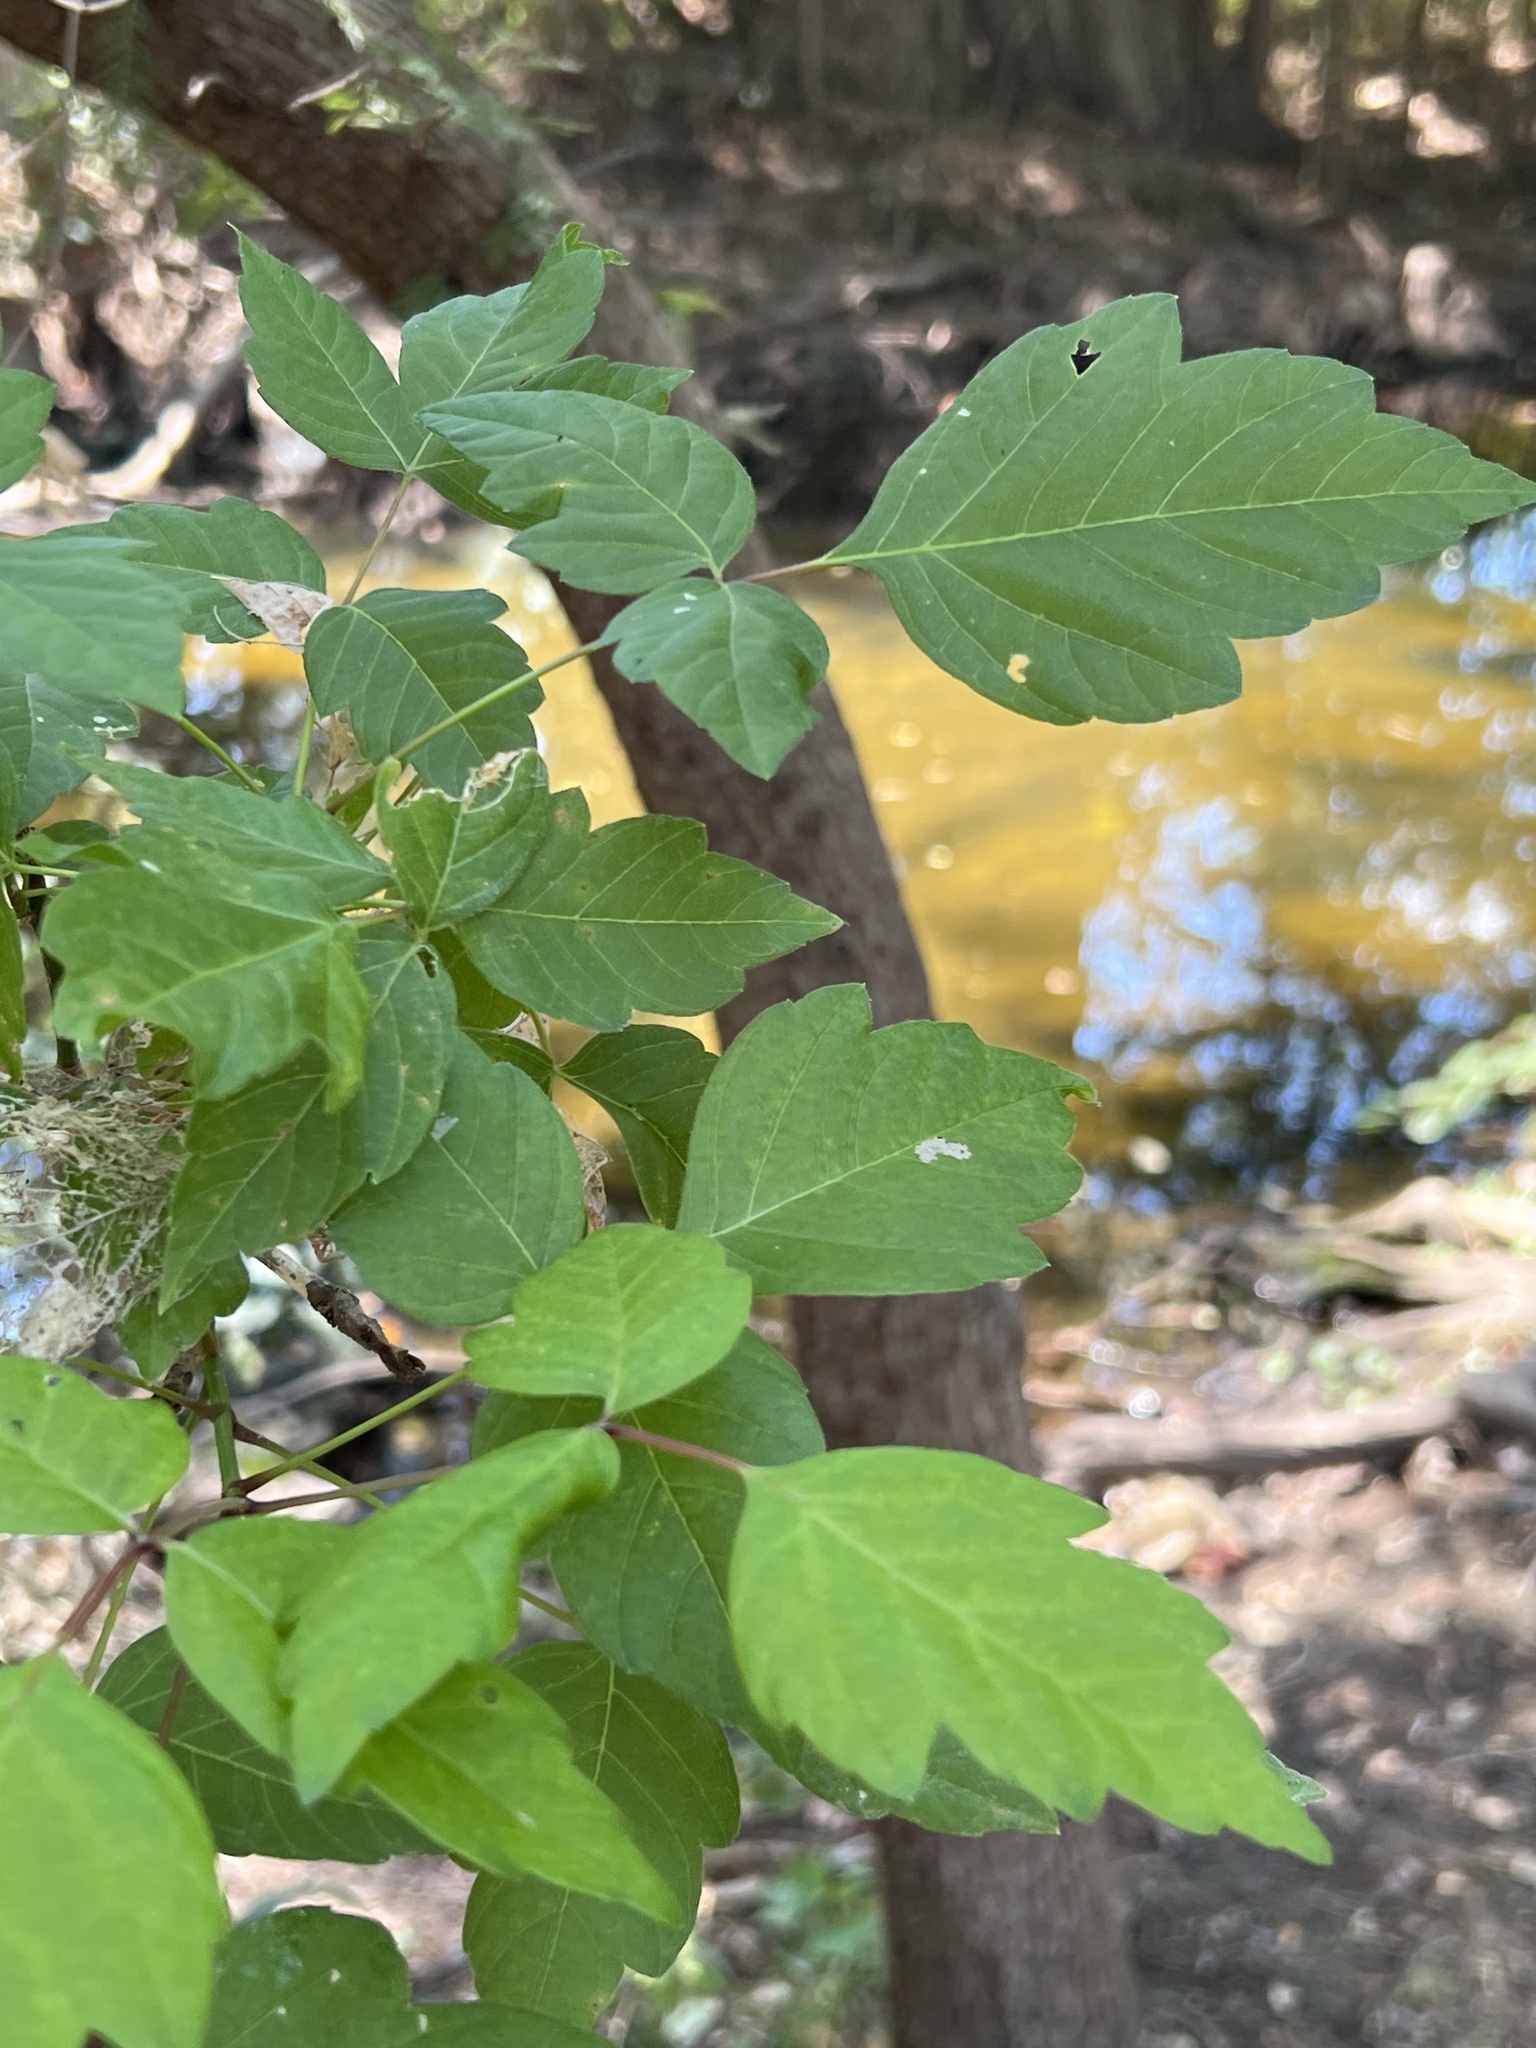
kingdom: Plantae
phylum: Tracheophyta
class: Magnoliopsida
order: Sapindales
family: Sapindaceae
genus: Acer
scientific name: Acer negundo
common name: Ashleaf maple
